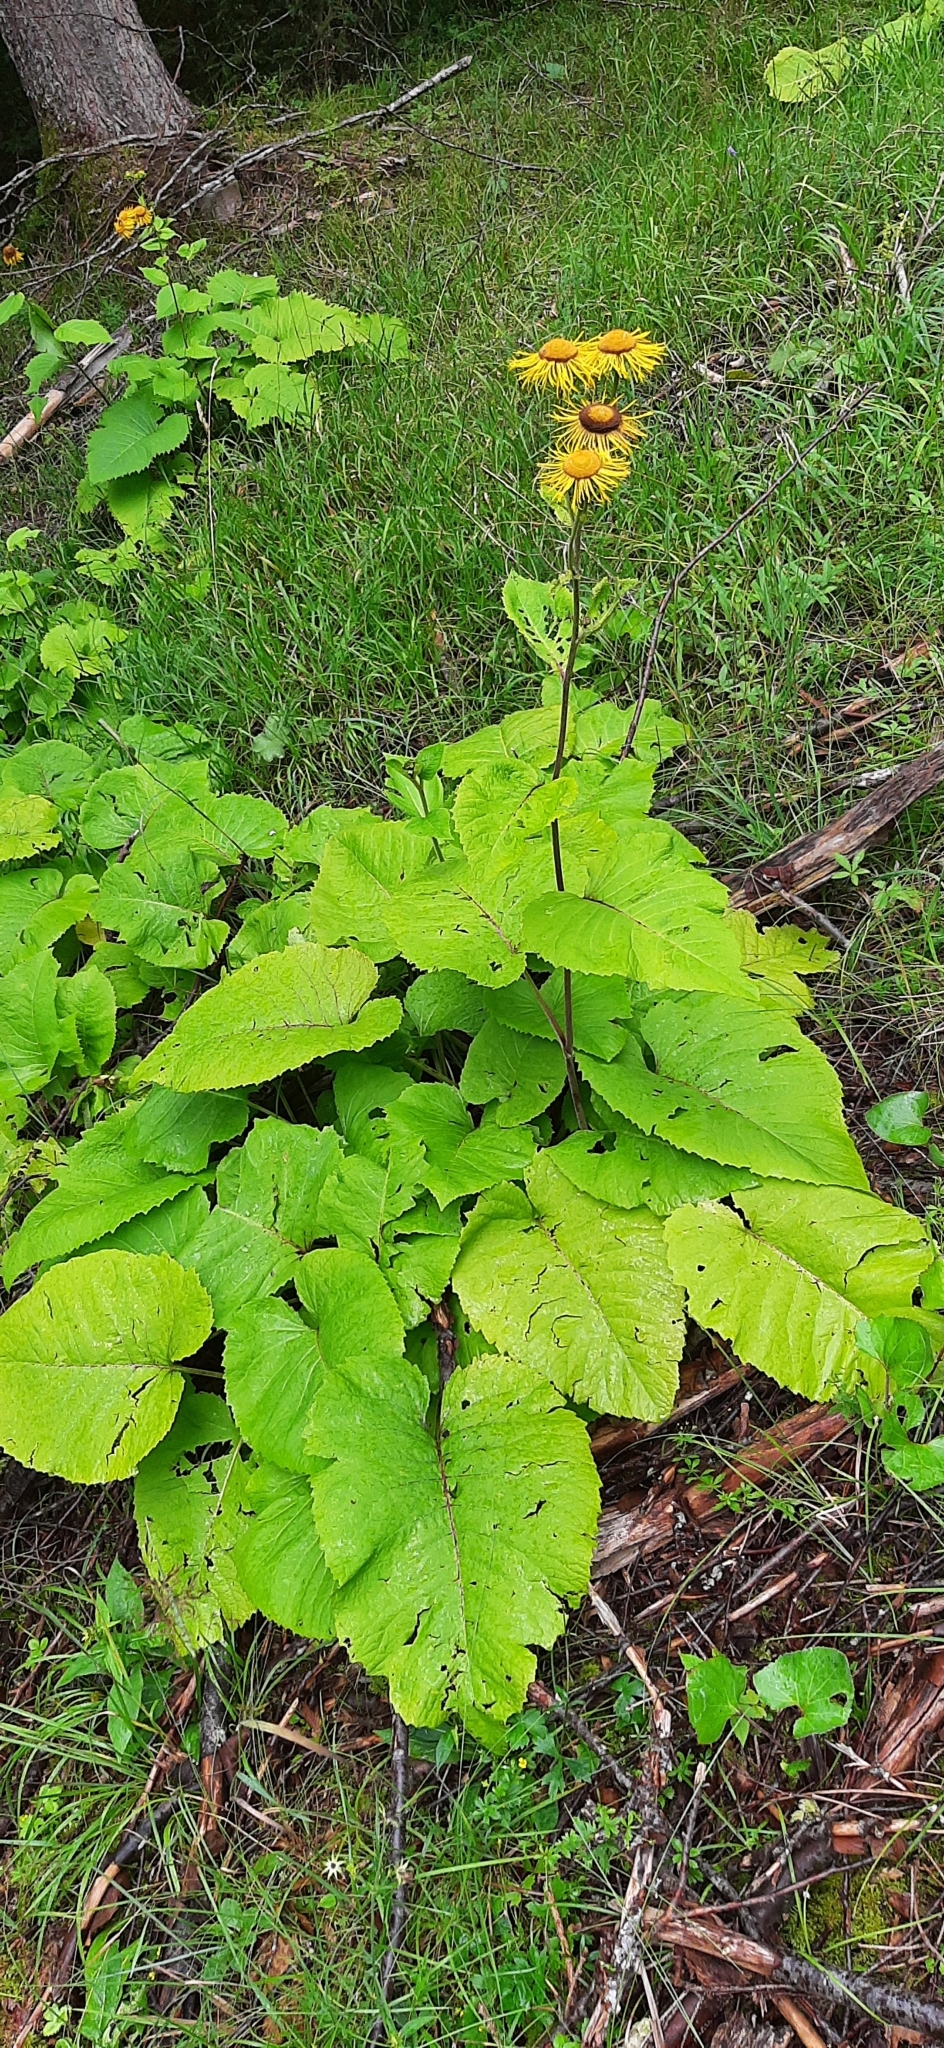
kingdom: Plantae
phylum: Tracheophyta
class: Magnoliopsida
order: Asterales
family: Asteraceae
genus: Telekia
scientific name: Telekia speciosa
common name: Yellow oxeye
